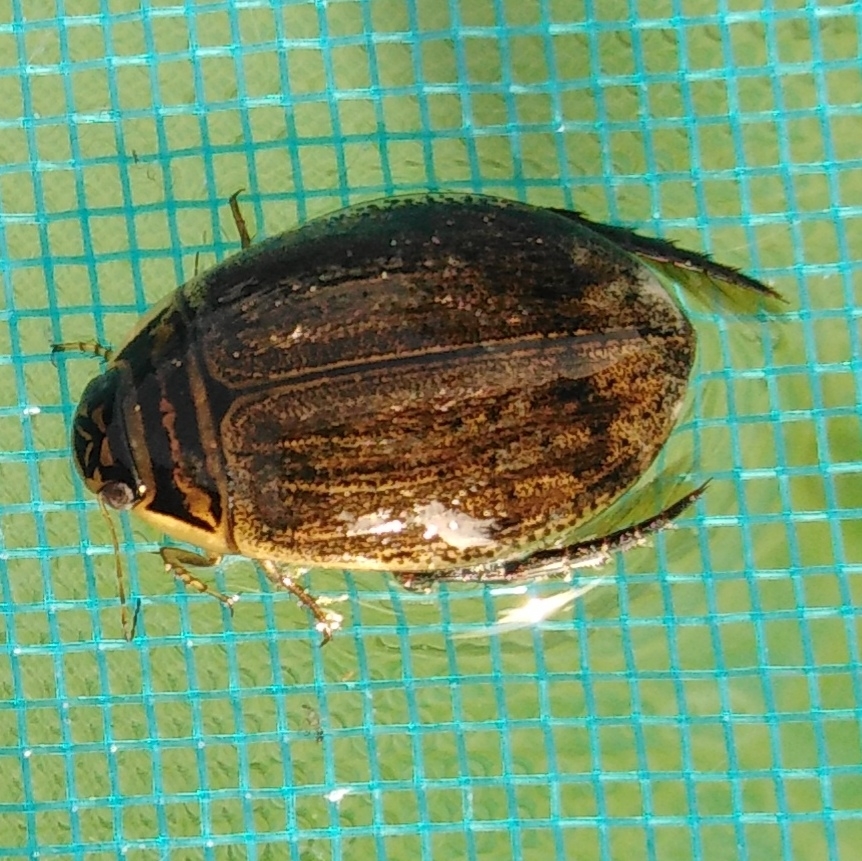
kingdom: Animalia
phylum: Arthropoda
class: Insecta
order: Coleoptera
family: Dytiscidae
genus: Acilius
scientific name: Acilius sulcatus
